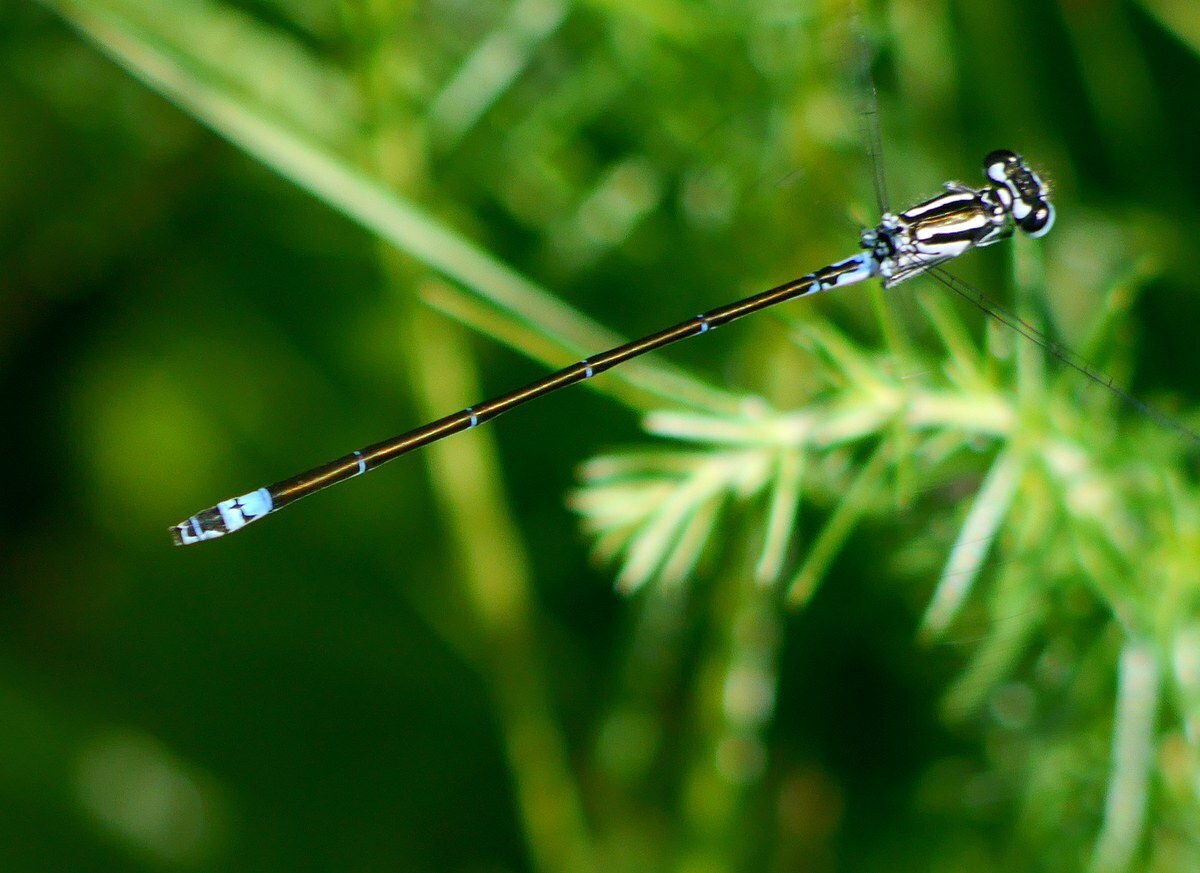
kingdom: Animalia
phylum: Arthropoda
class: Insecta
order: Odonata
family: Coenagrionidae
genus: Coenagrion
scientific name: Coenagrion pulchellum
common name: Variable bluet
